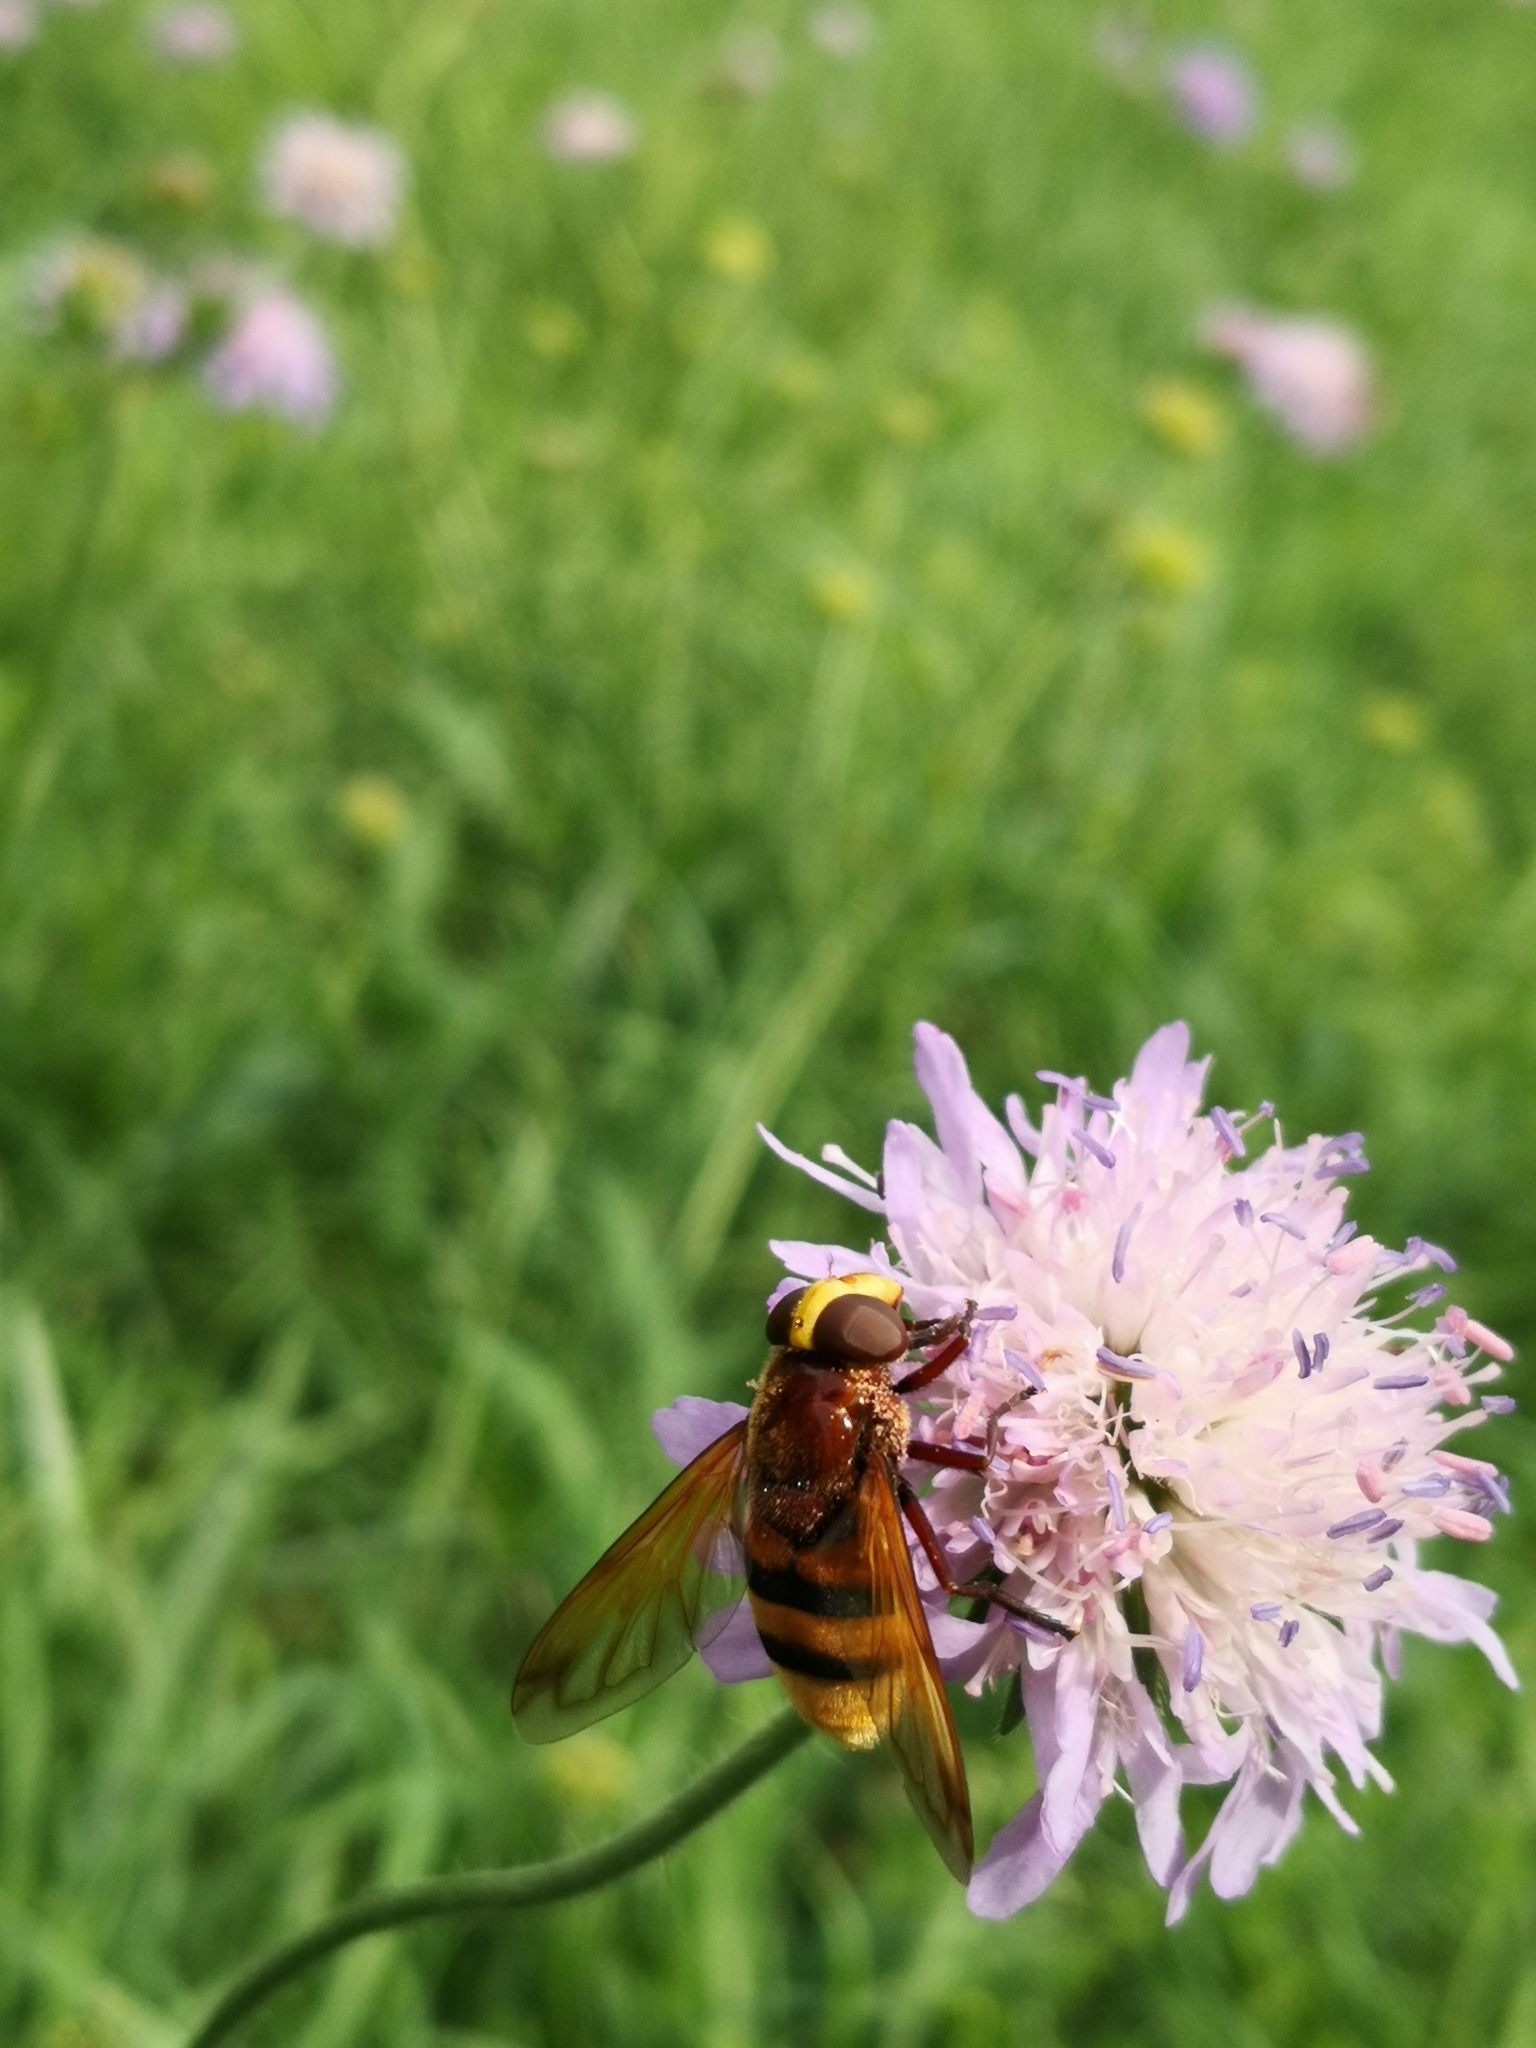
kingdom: Animalia
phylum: Arthropoda
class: Insecta
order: Diptera
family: Syrphidae
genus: Volucella
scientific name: Volucella zonaria
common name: Hornet hoverfly
